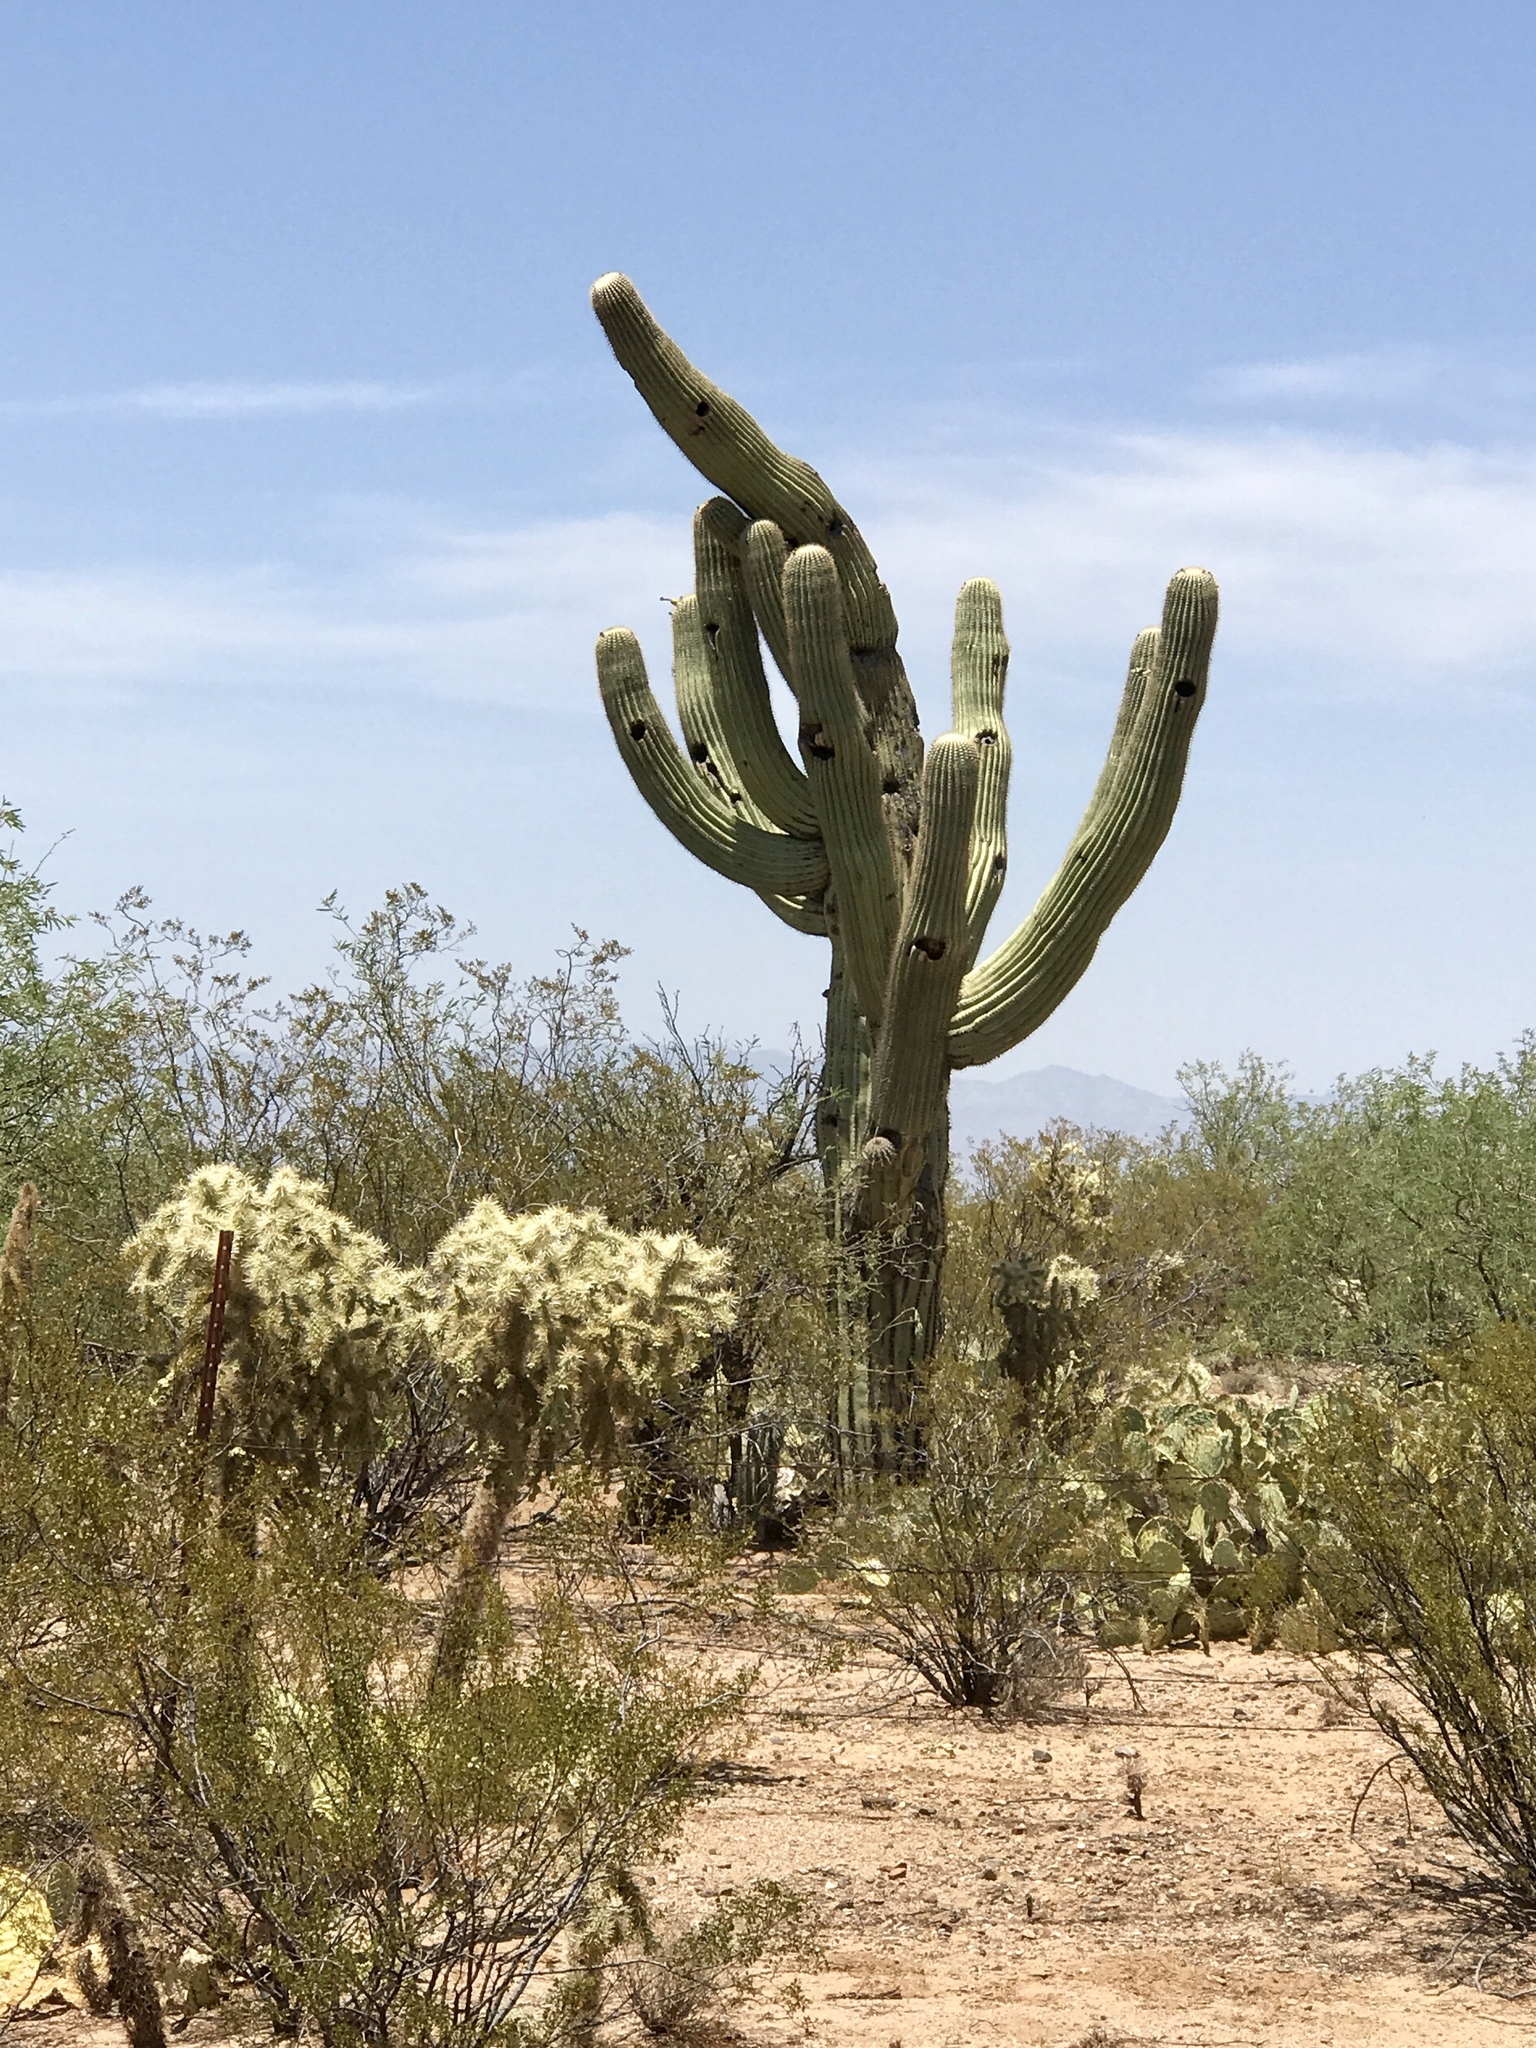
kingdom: Plantae
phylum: Tracheophyta
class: Magnoliopsida
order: Caryophyllales
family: Cactaceae
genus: Carnegiea
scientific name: Carnegiea gigantea
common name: Saguaro
